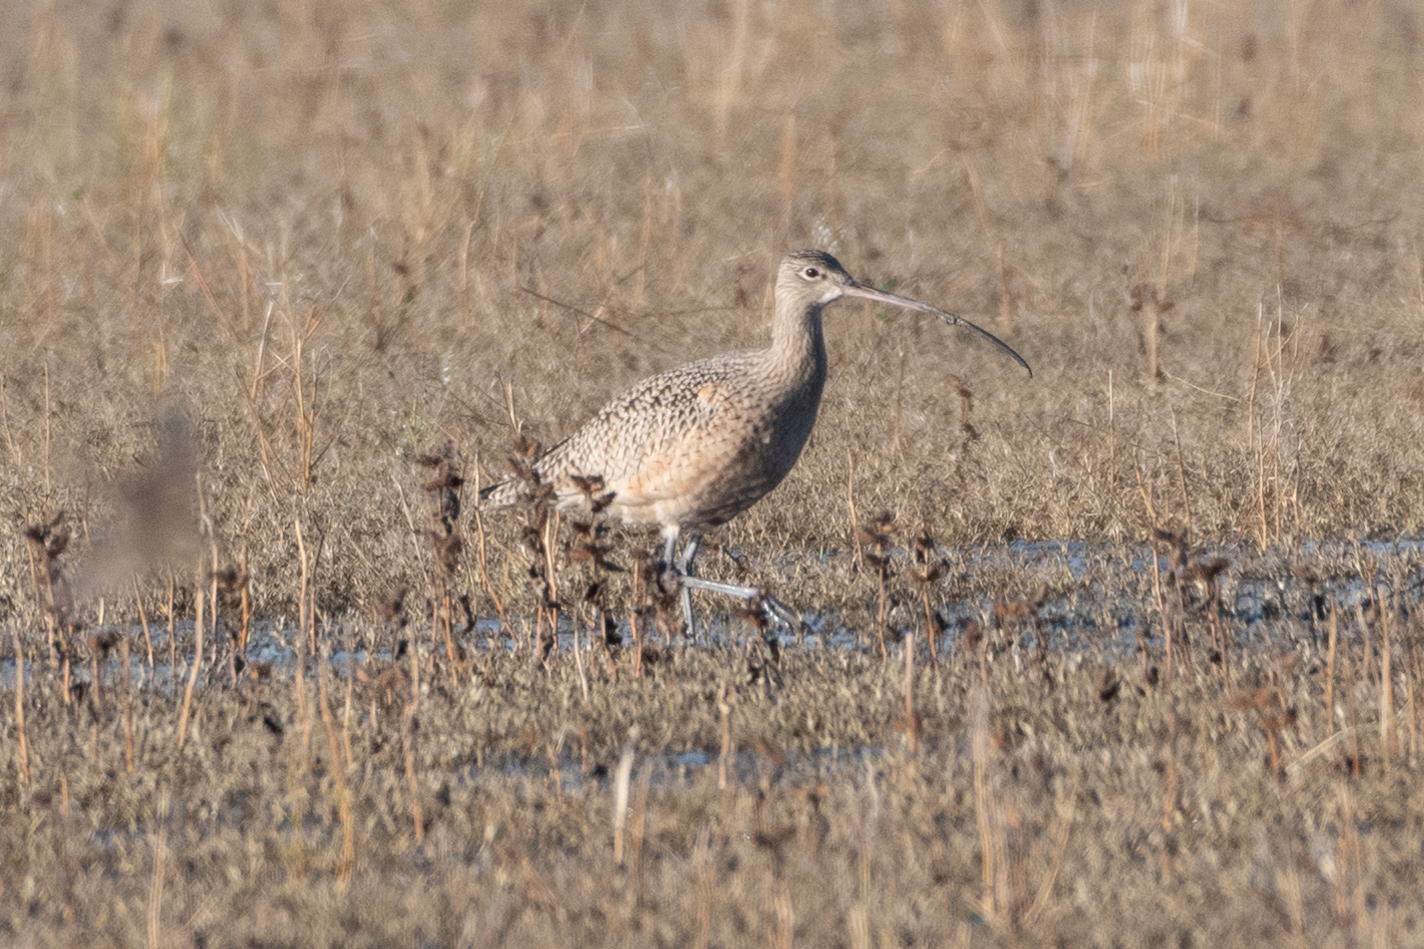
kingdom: Animalia
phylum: Chordata
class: Aves
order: Charadriiformes
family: Scolopacidae
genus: Numenius
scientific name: Numenius americanus
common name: Long-billed curlew
